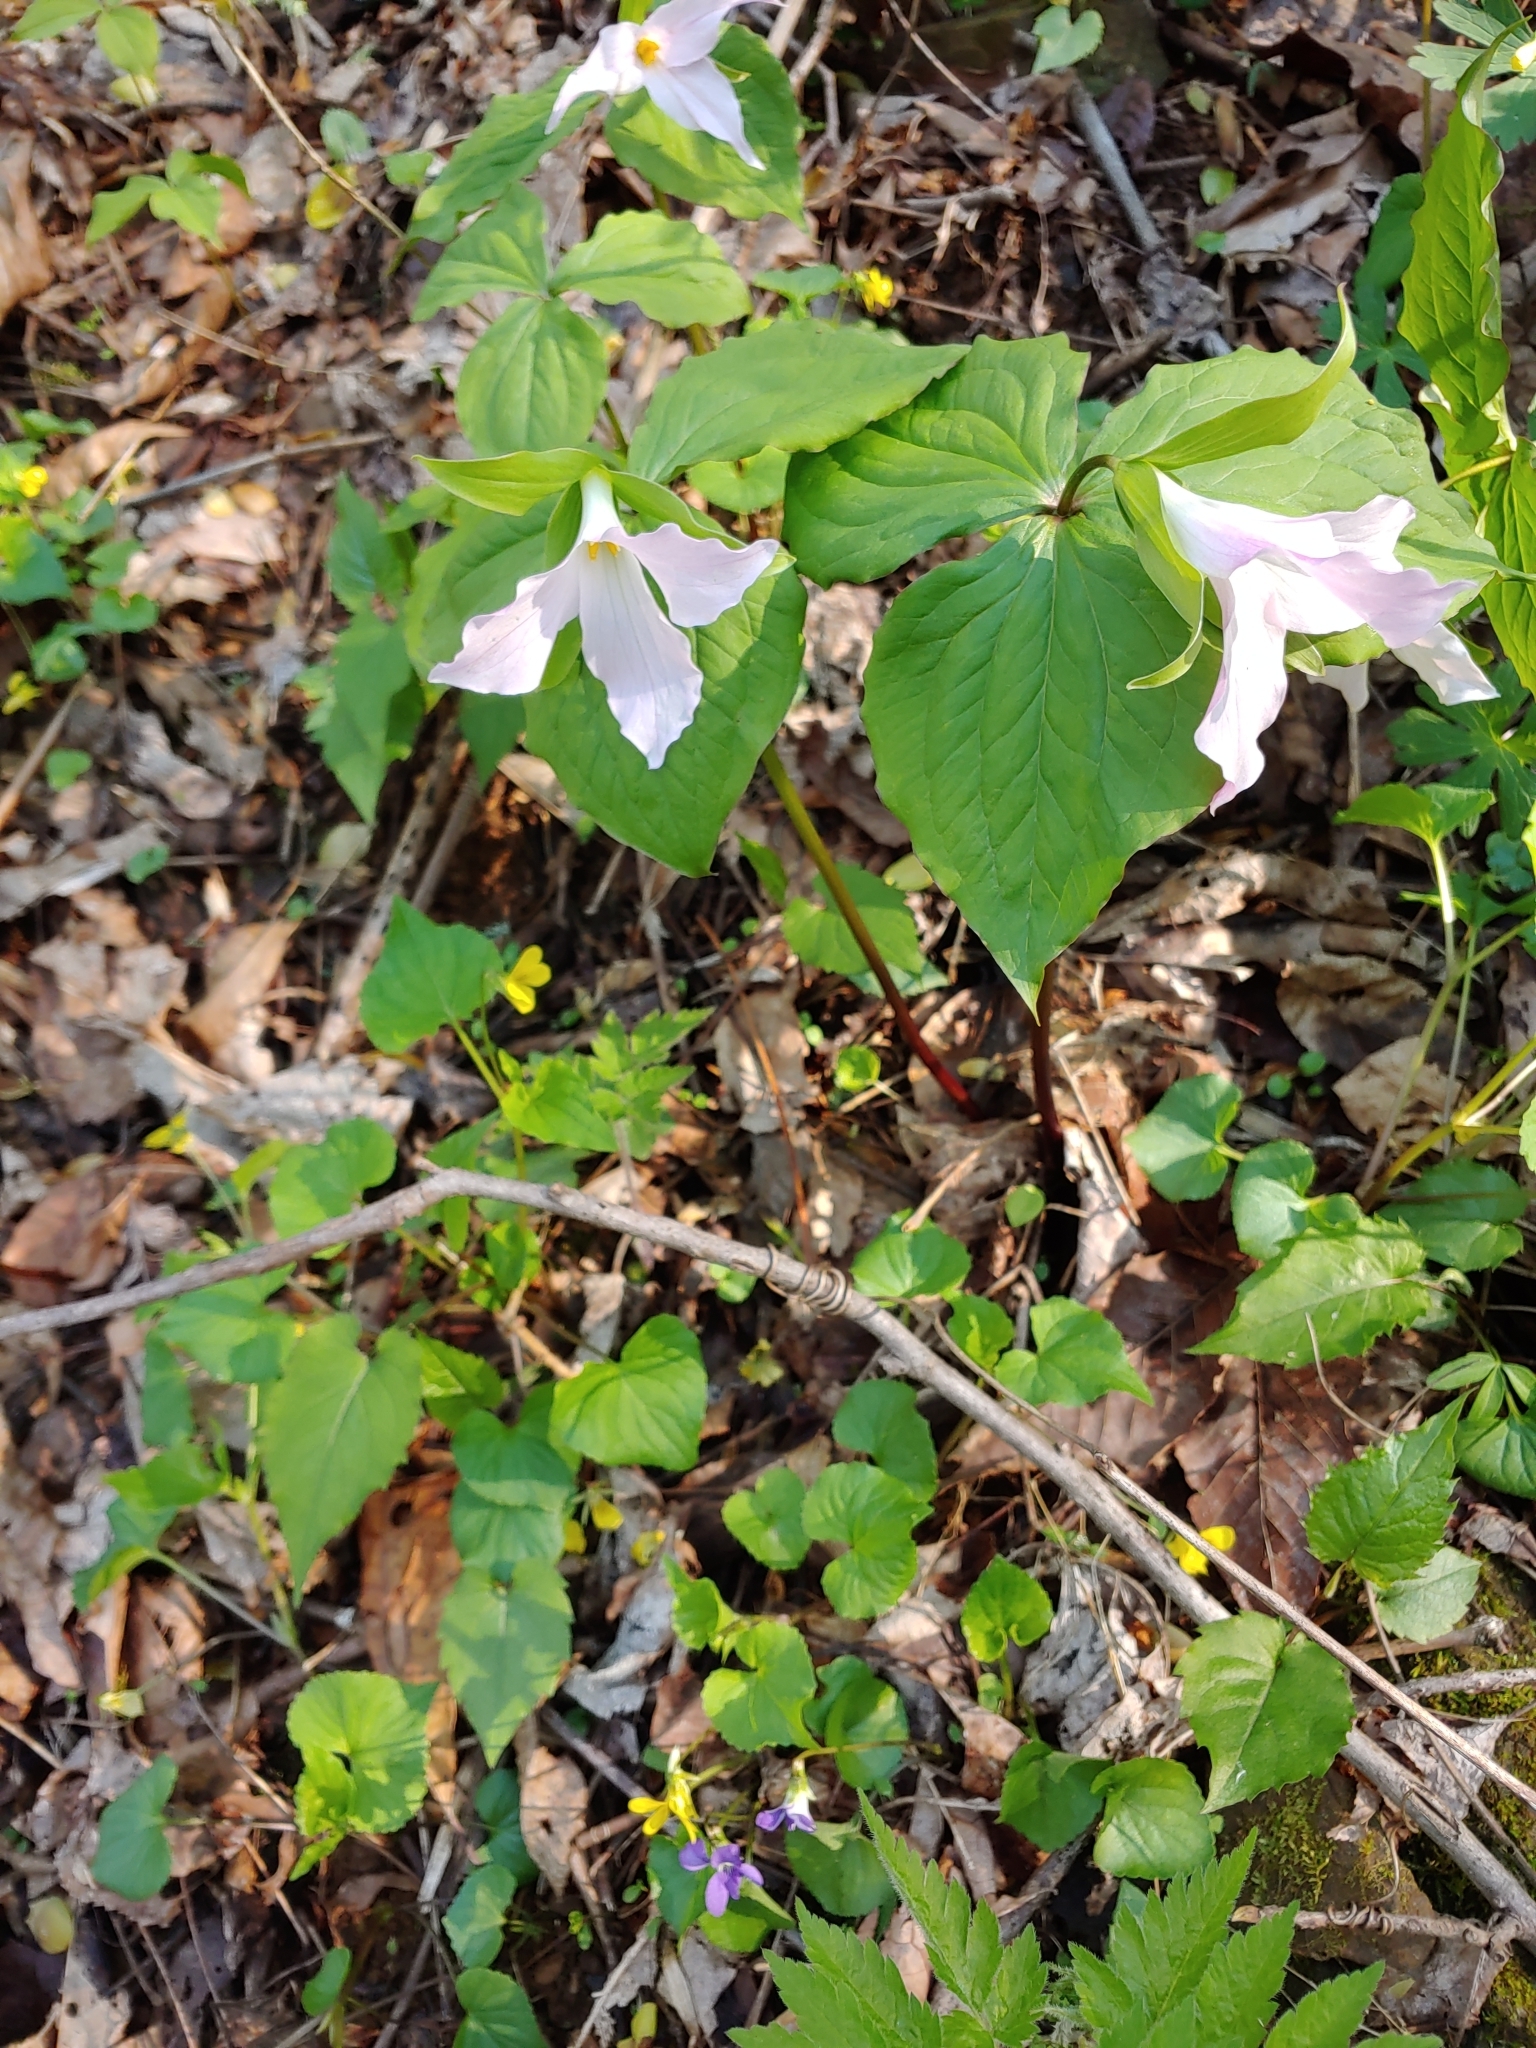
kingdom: Plantae
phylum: Tracheophyta
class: Liliopsida
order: Liliales
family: Melanthiaceae
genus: Trillium
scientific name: Trillium grandiflorum
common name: Great white trillium
